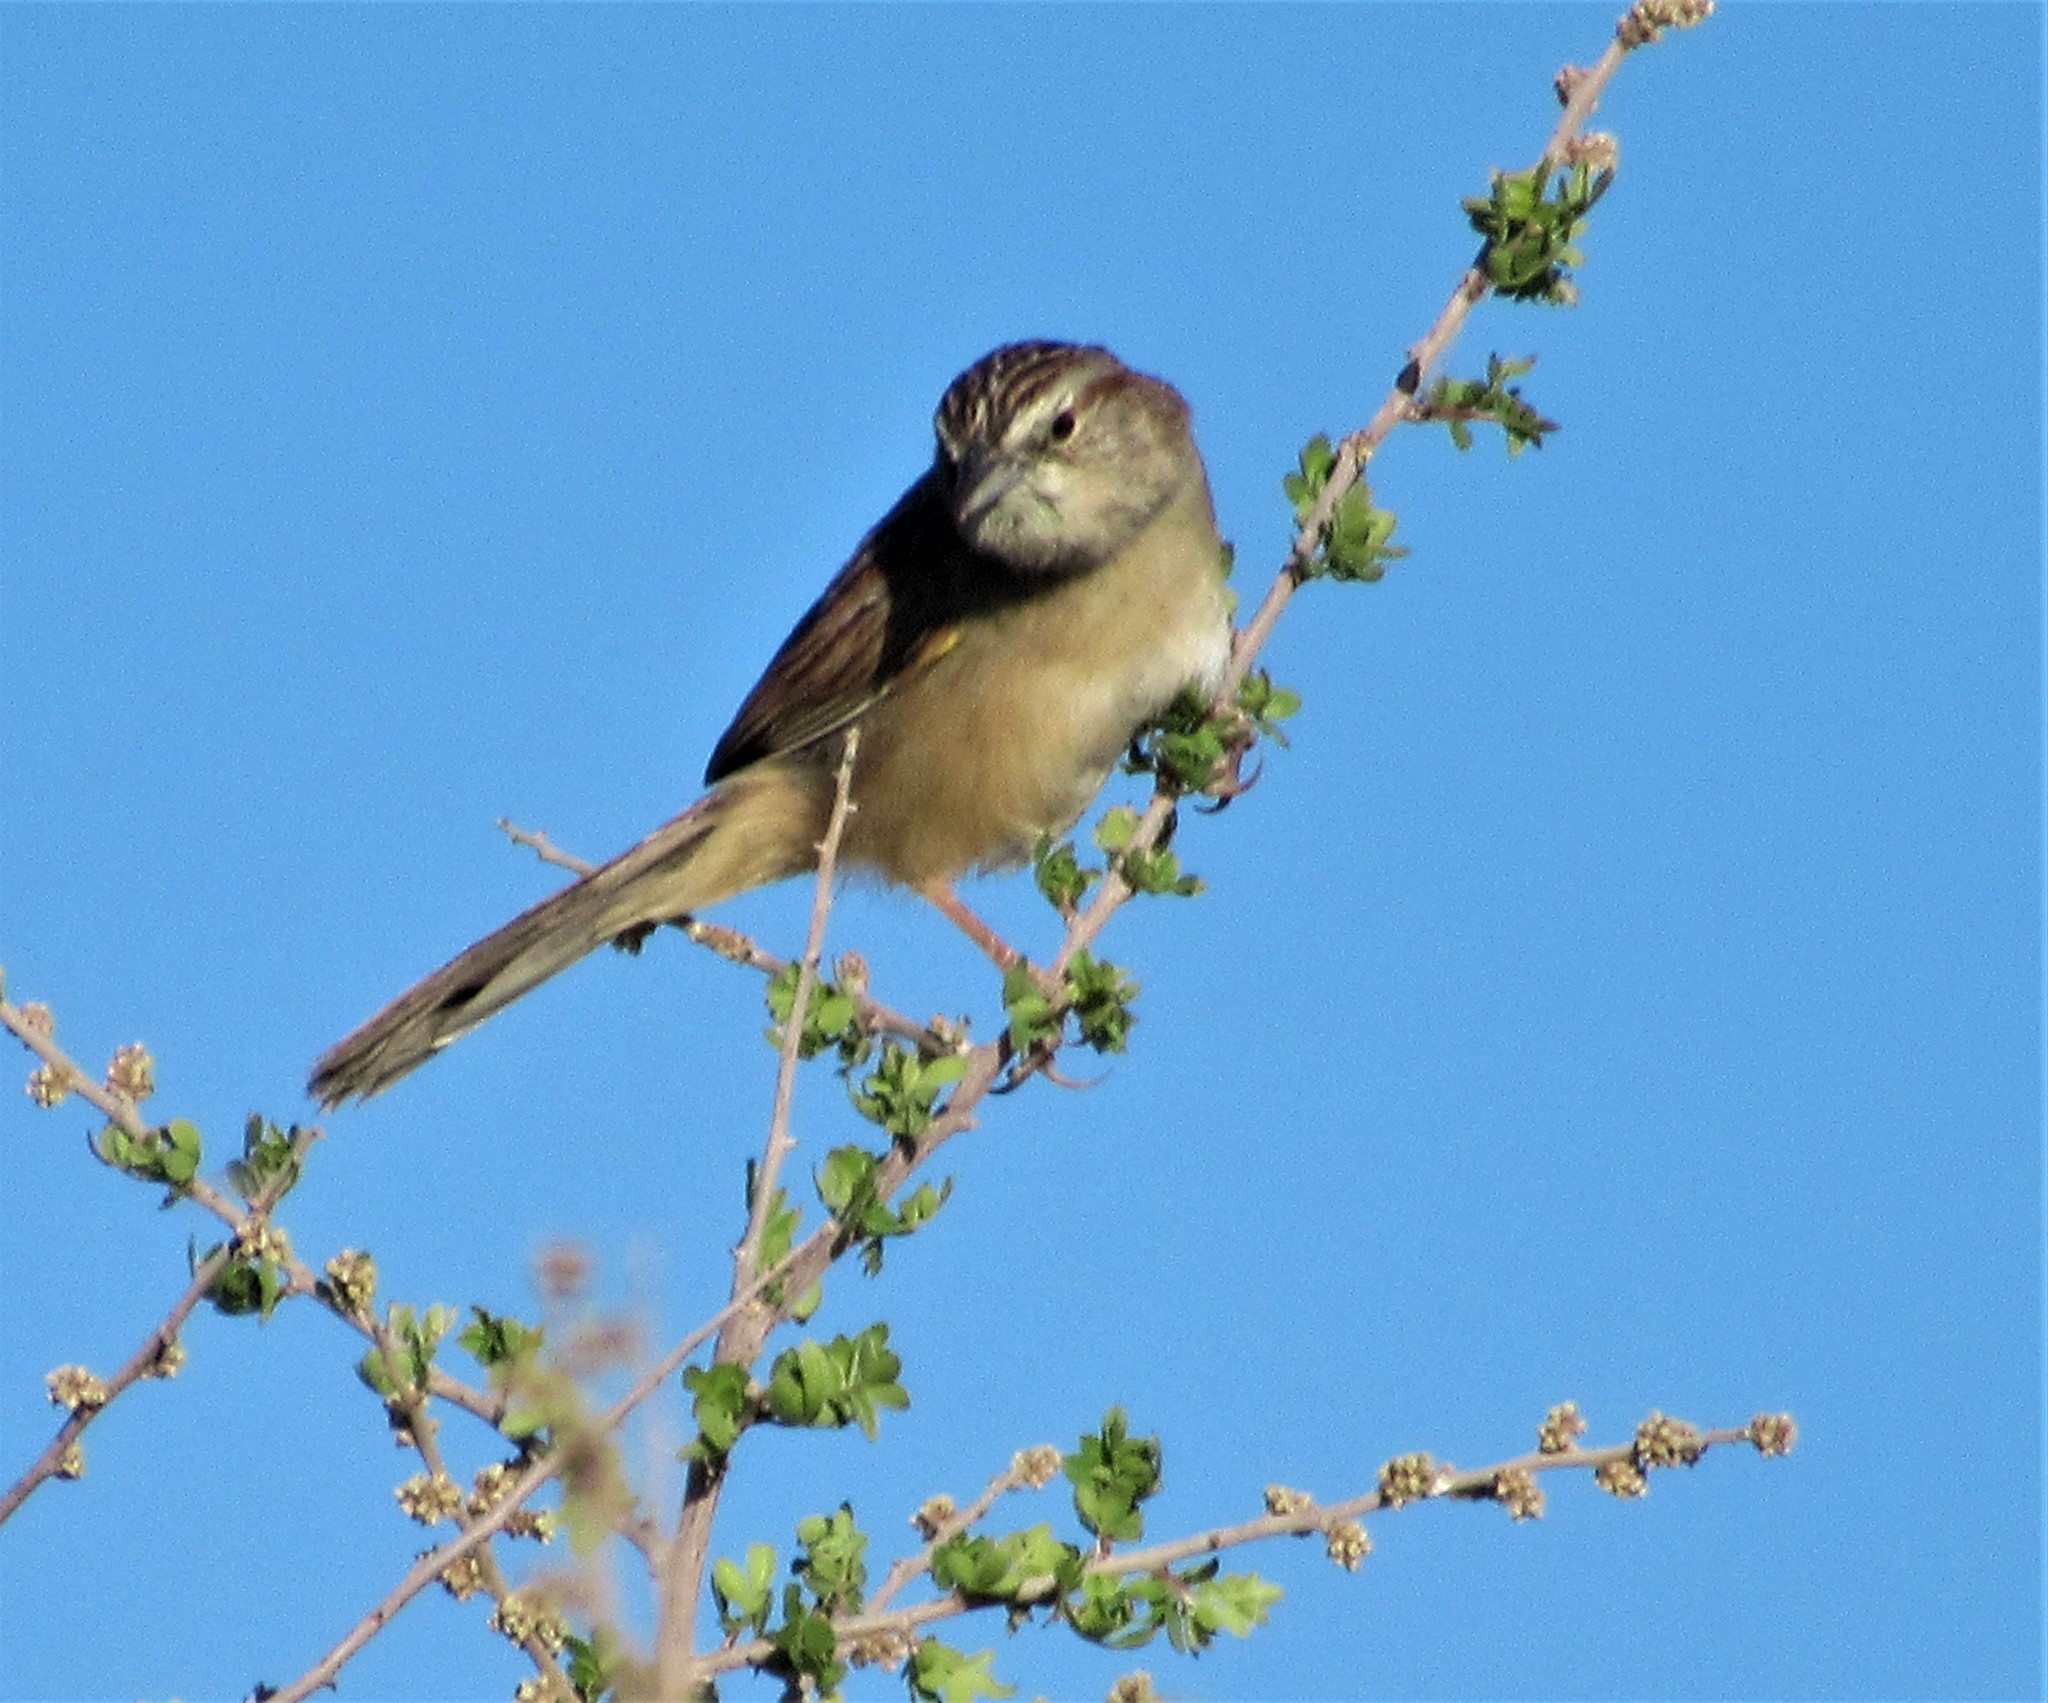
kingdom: Animalia
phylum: Chordata
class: Aves
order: Passeriformes
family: Passerellidae
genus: Peucaea
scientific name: Peucaea botterii
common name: Botteri's sparrow
